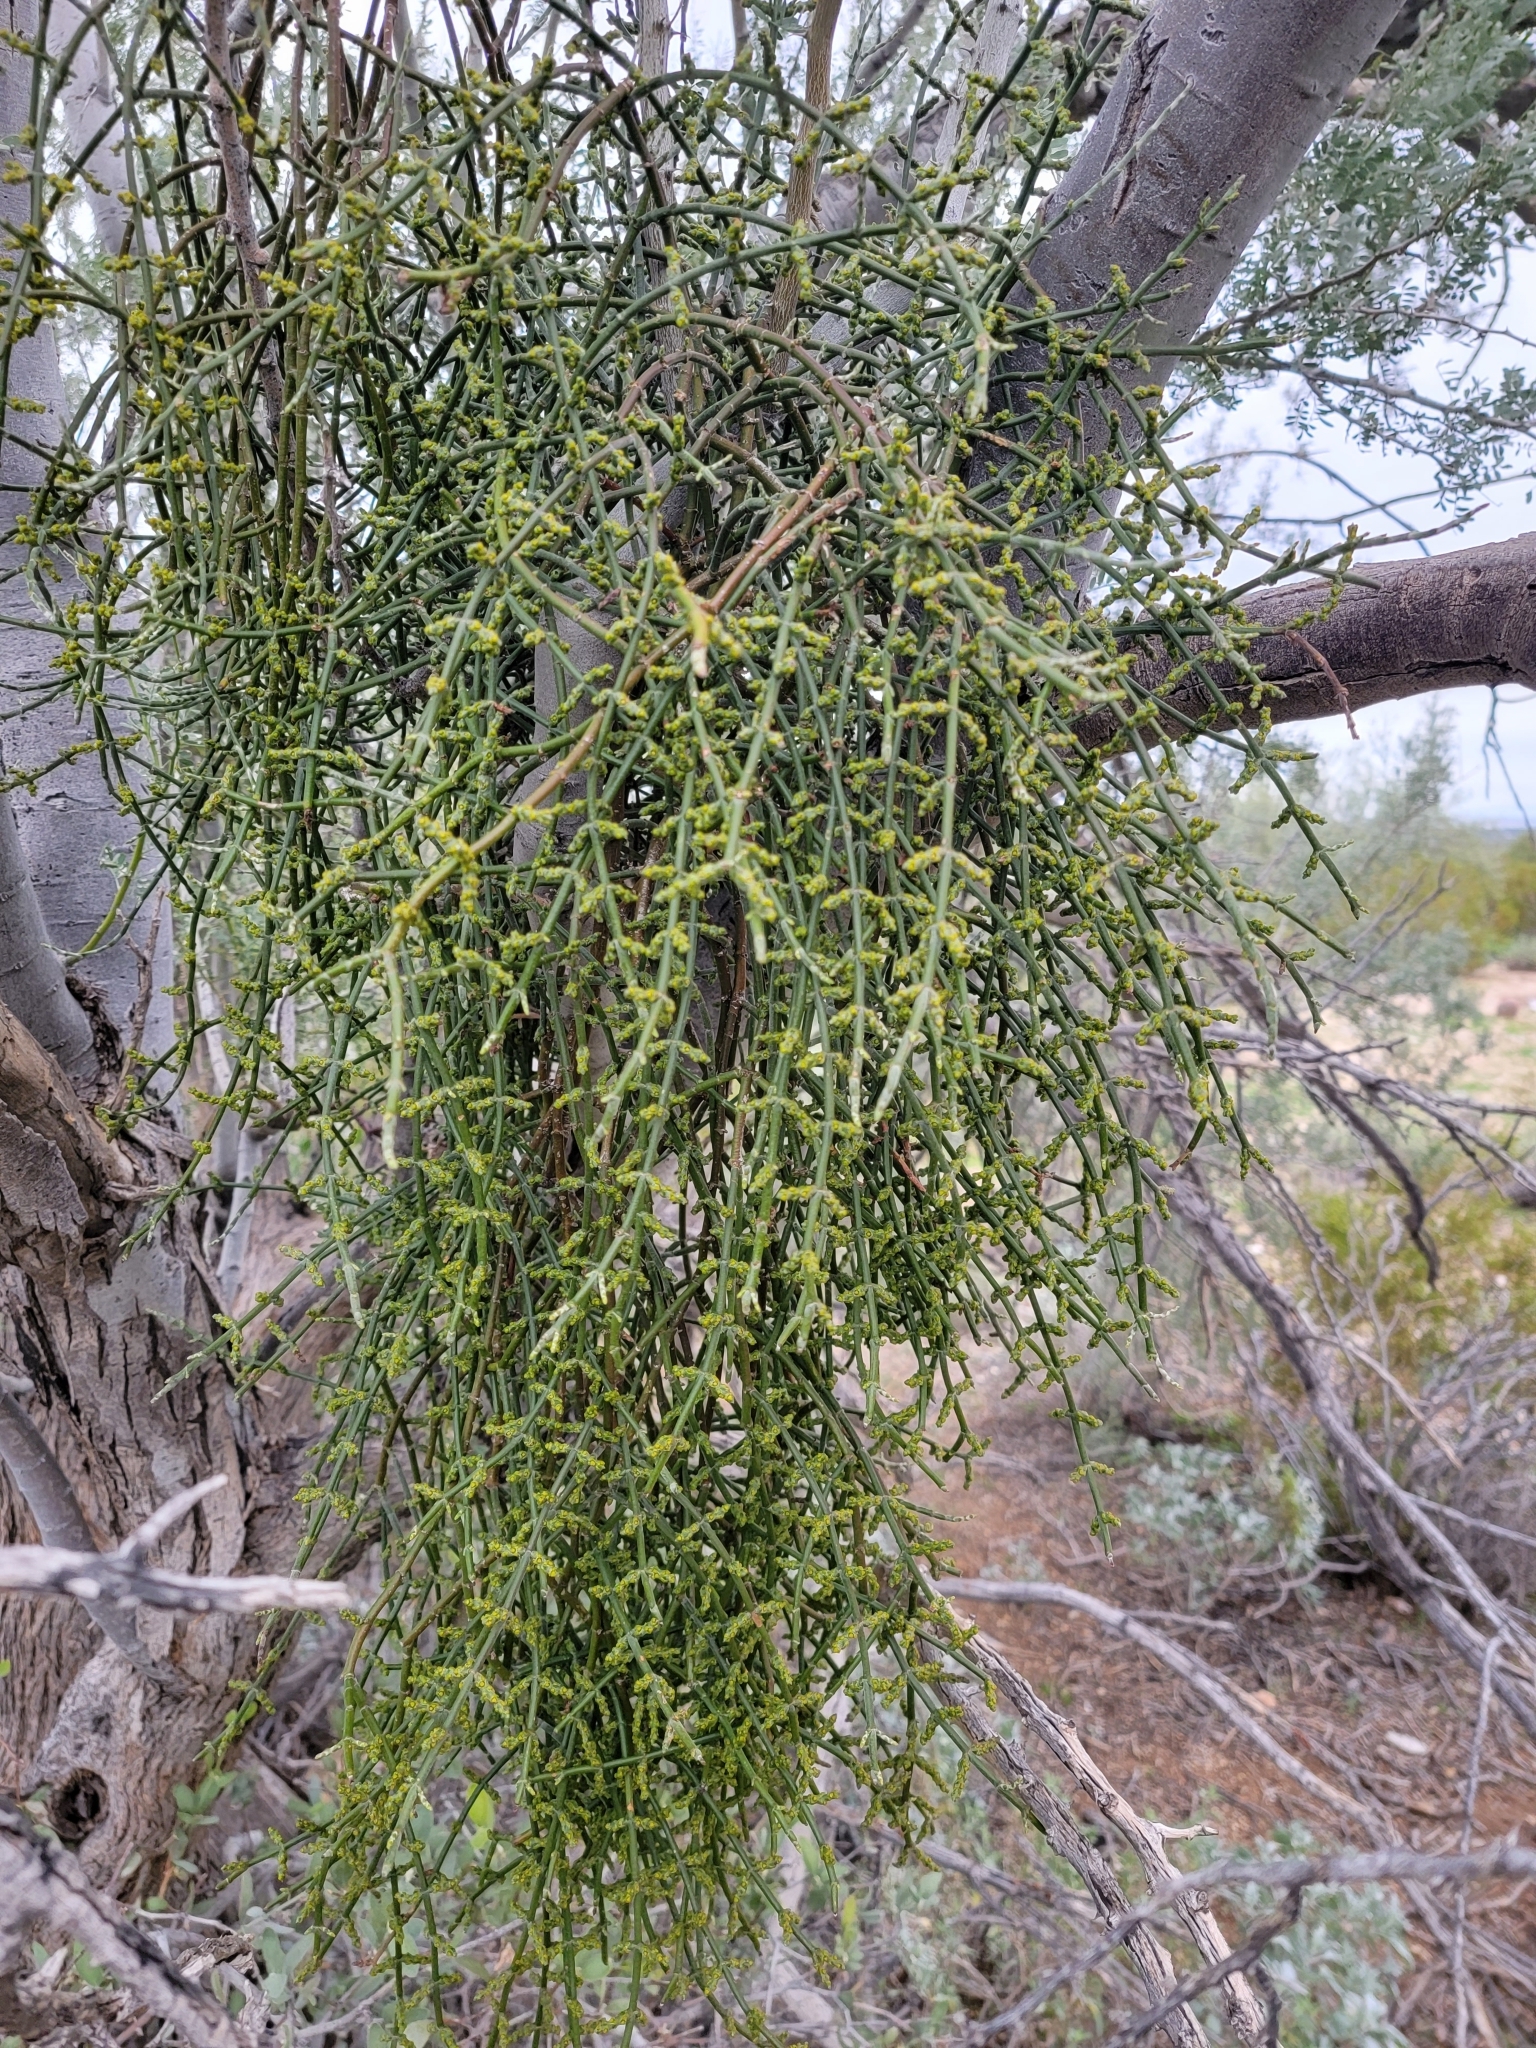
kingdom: Plantae
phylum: Tracheophyta
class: Magnoliopsida
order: Santalales
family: Viscaceae
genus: Phoradendron
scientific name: Phoradendron californicum
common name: Acacia mistletoe
